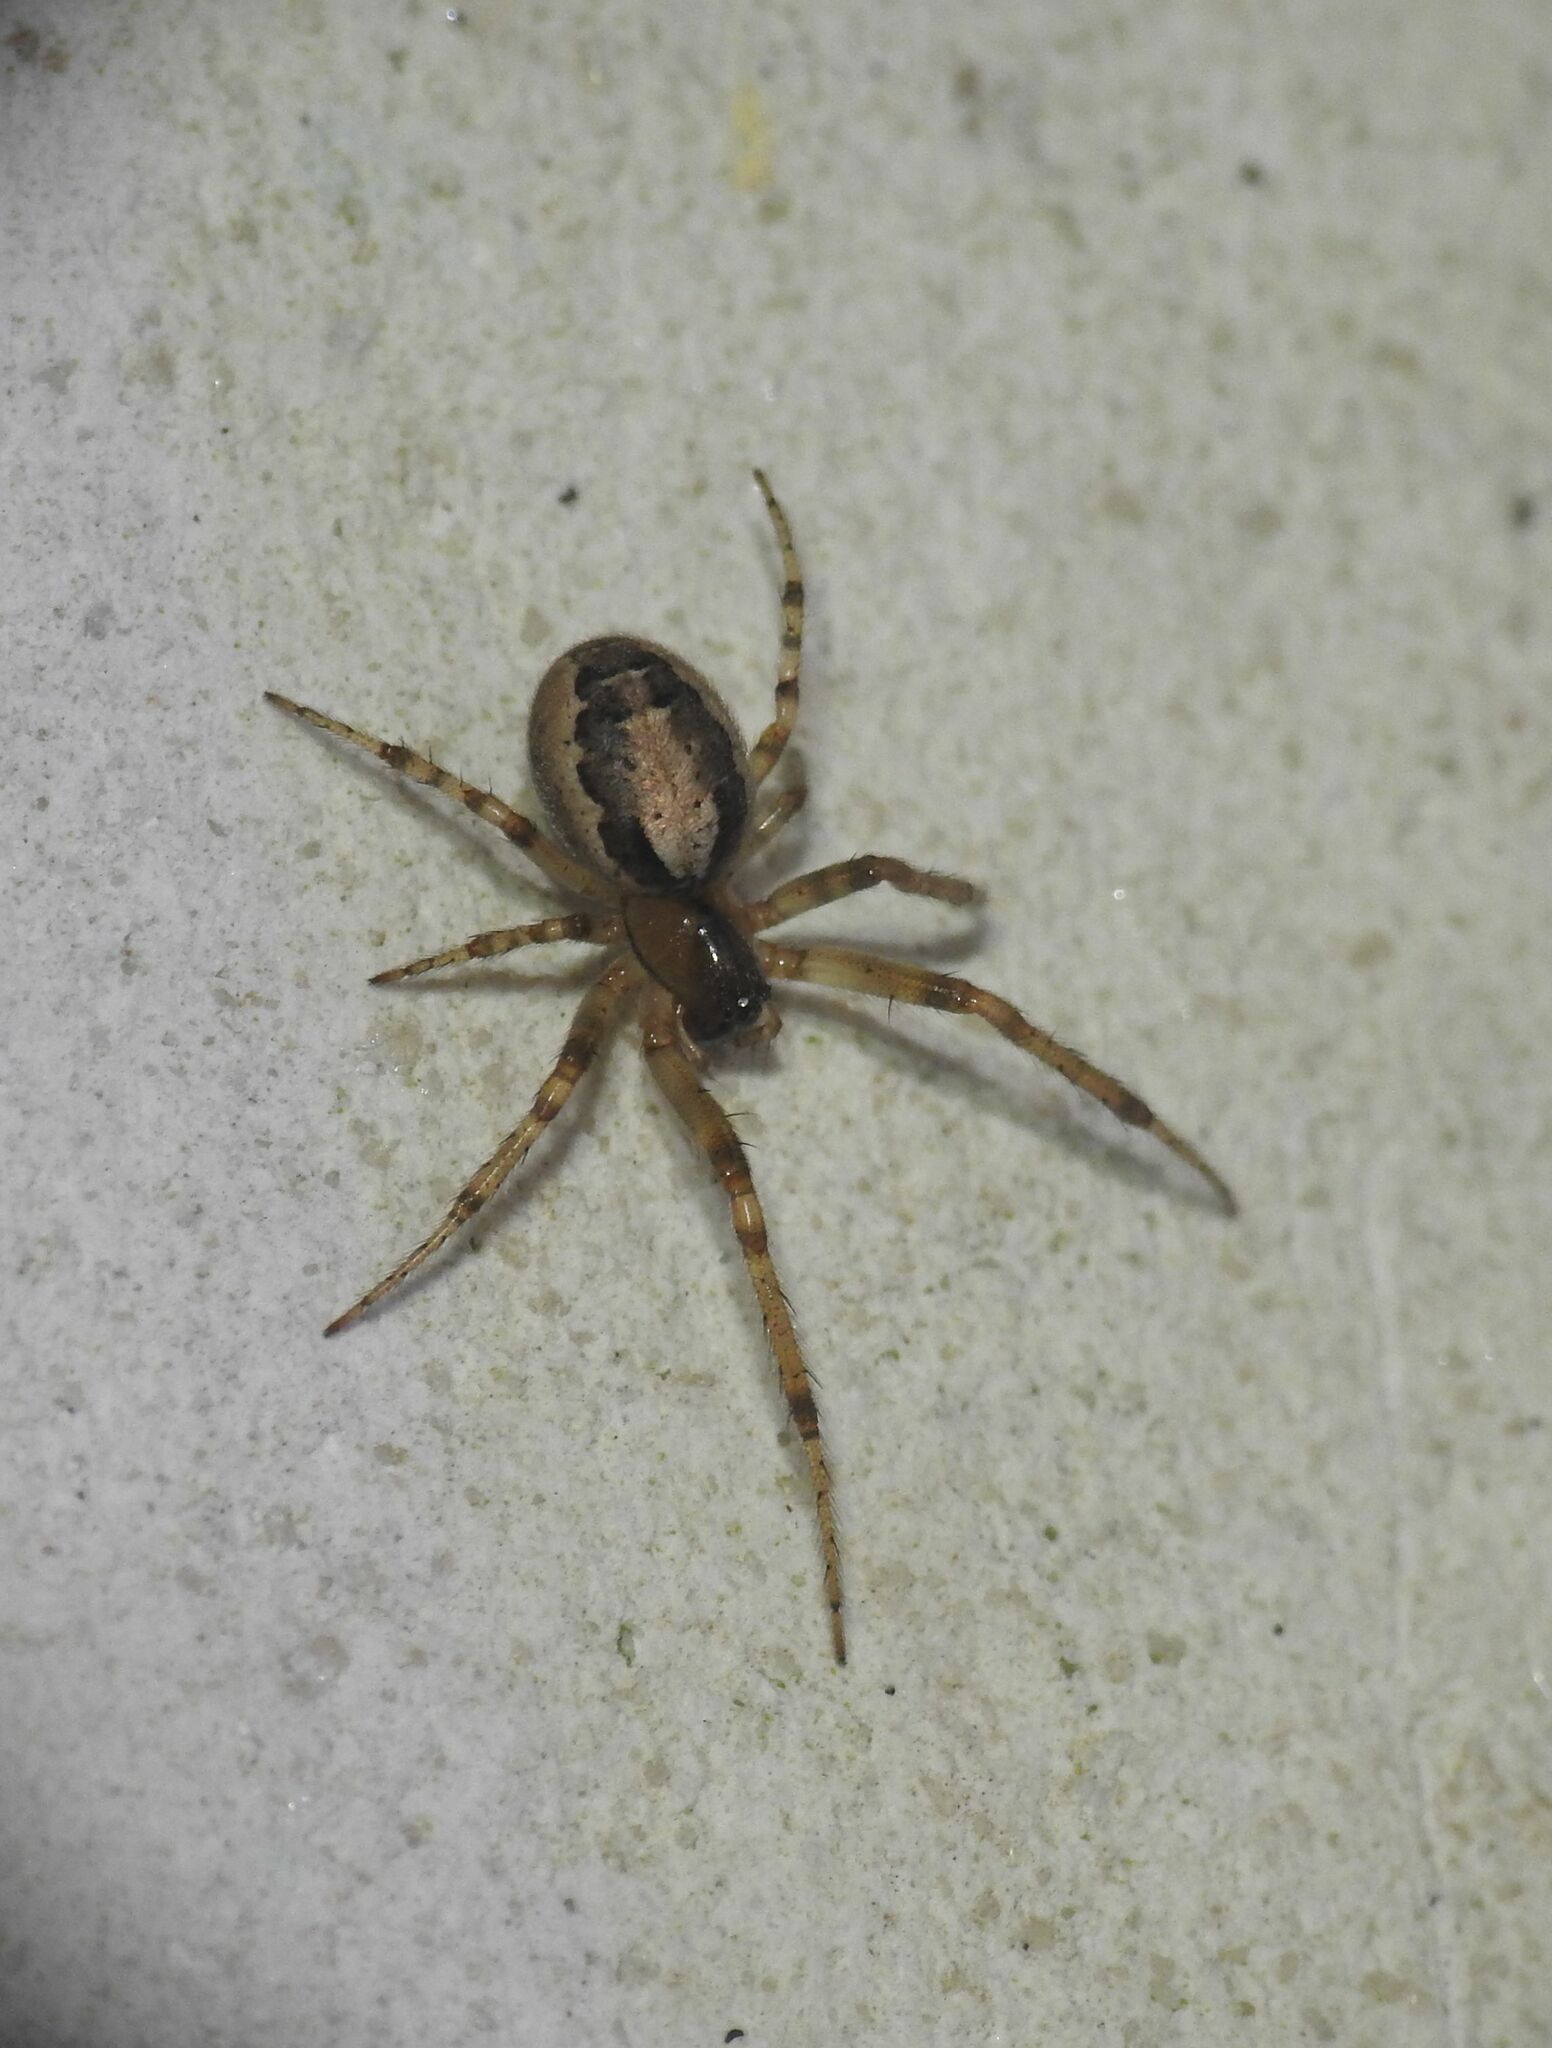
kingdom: Animalia
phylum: Arthropoda
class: Arachnida
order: Araneae
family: Araneidae
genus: Zygiella
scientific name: Zygiella x-notata
